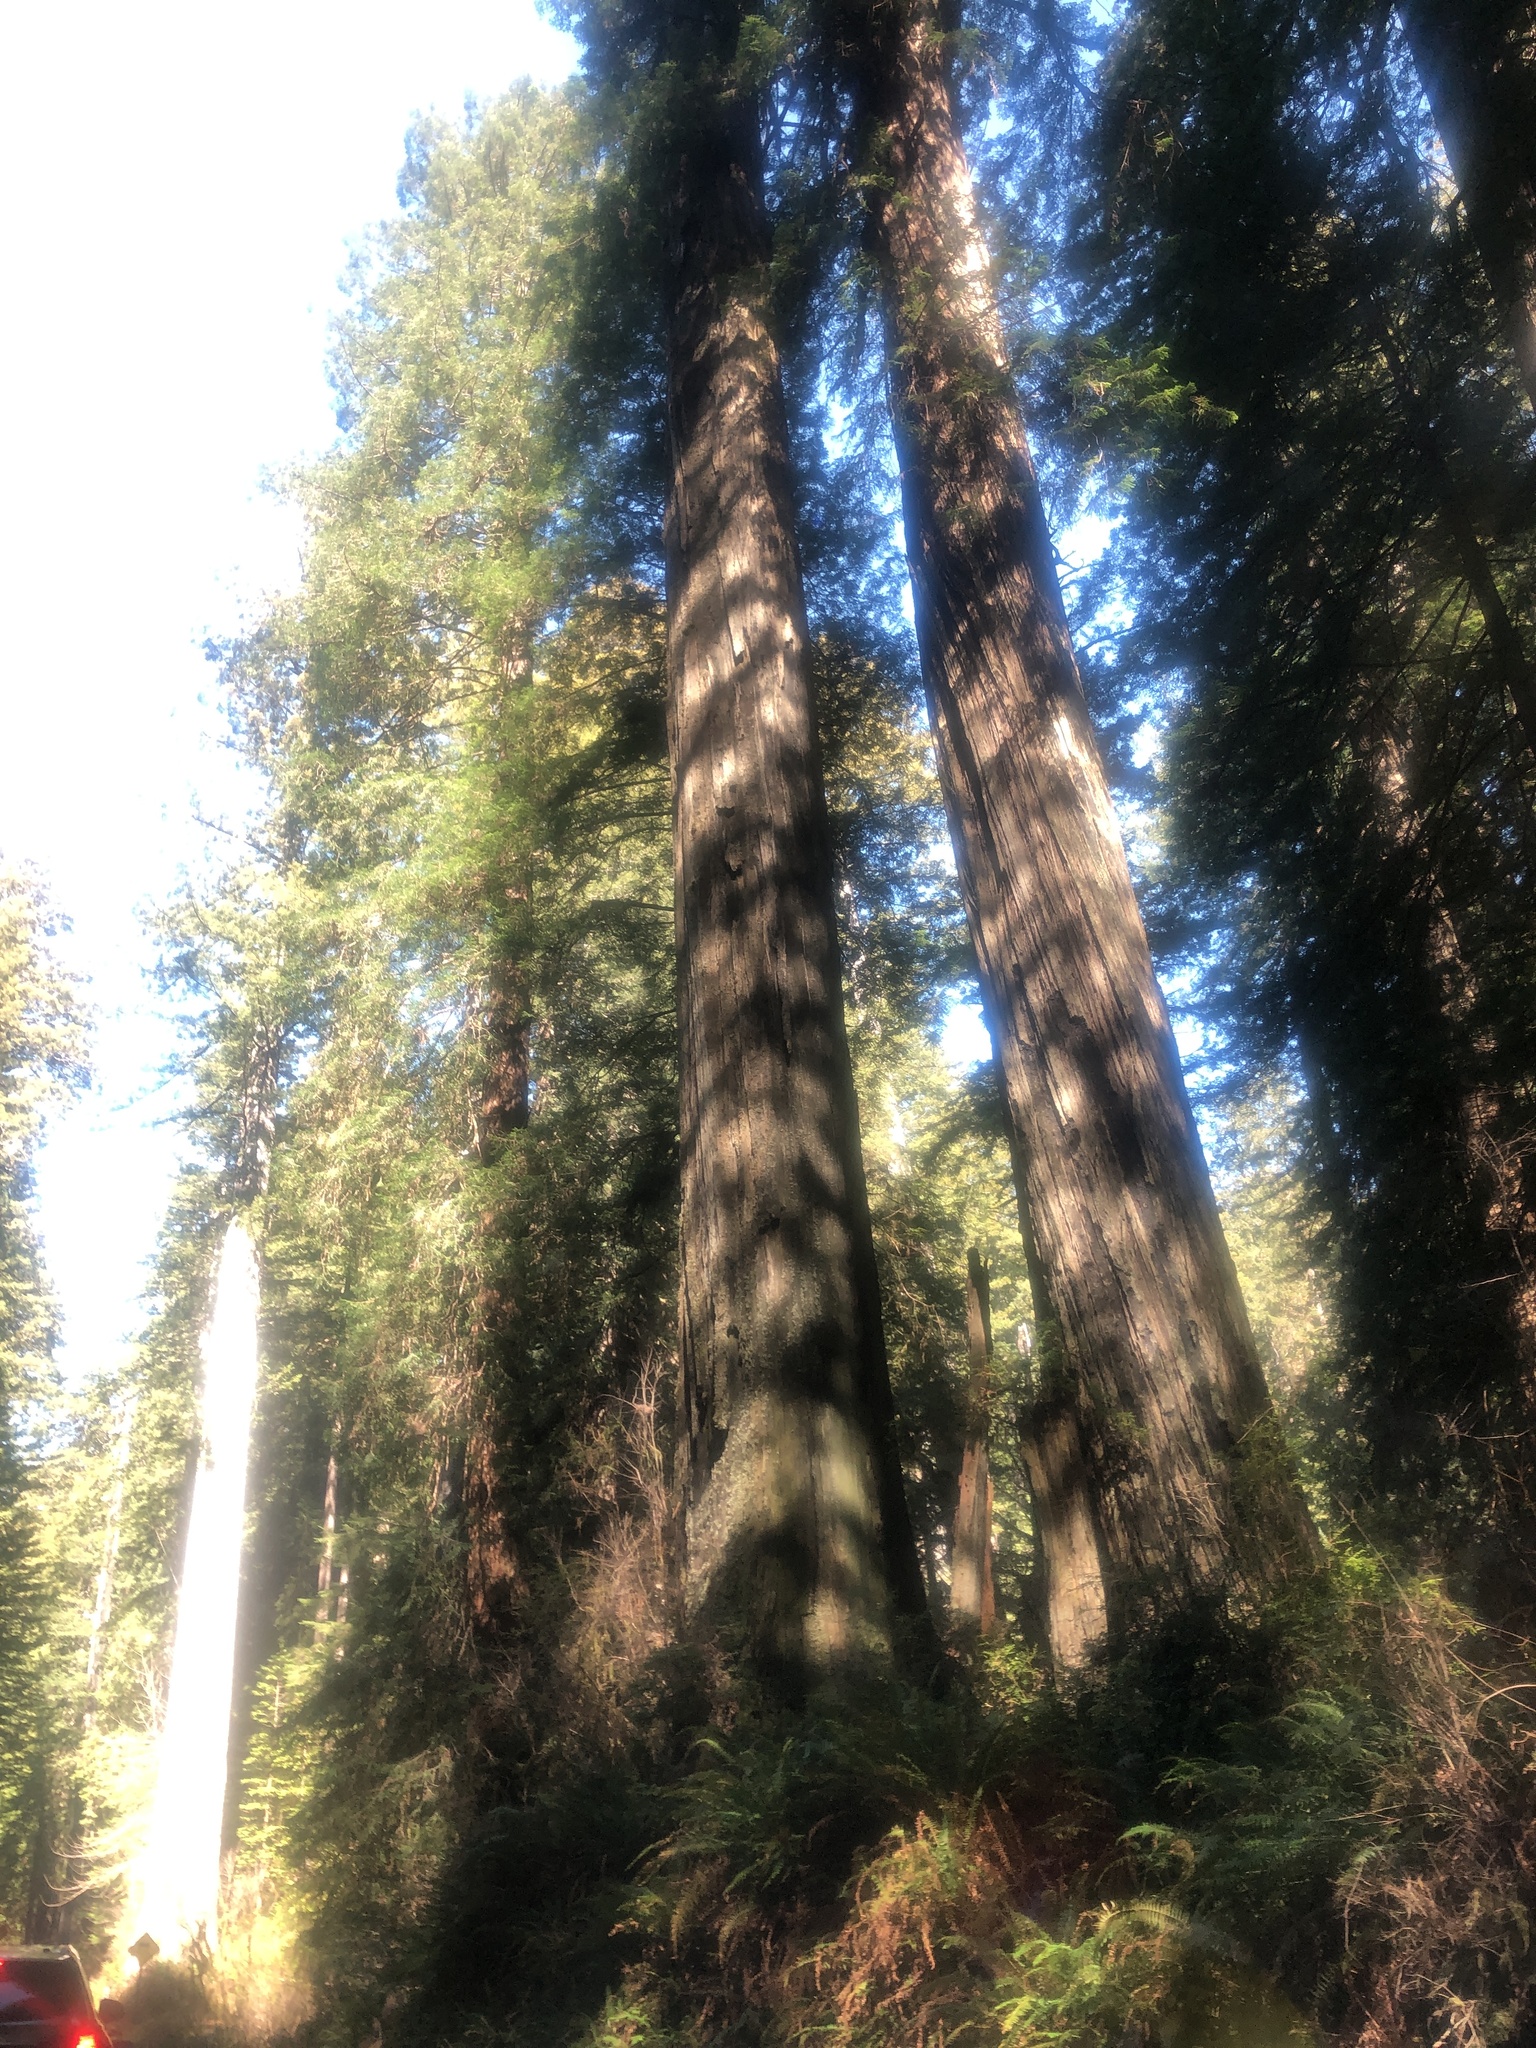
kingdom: Plantae
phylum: Tracheophyta
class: Pinopsida
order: Pinales
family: Cupressaceae
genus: Sequoia
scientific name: Sequoia sempervirens
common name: Coast redwood
